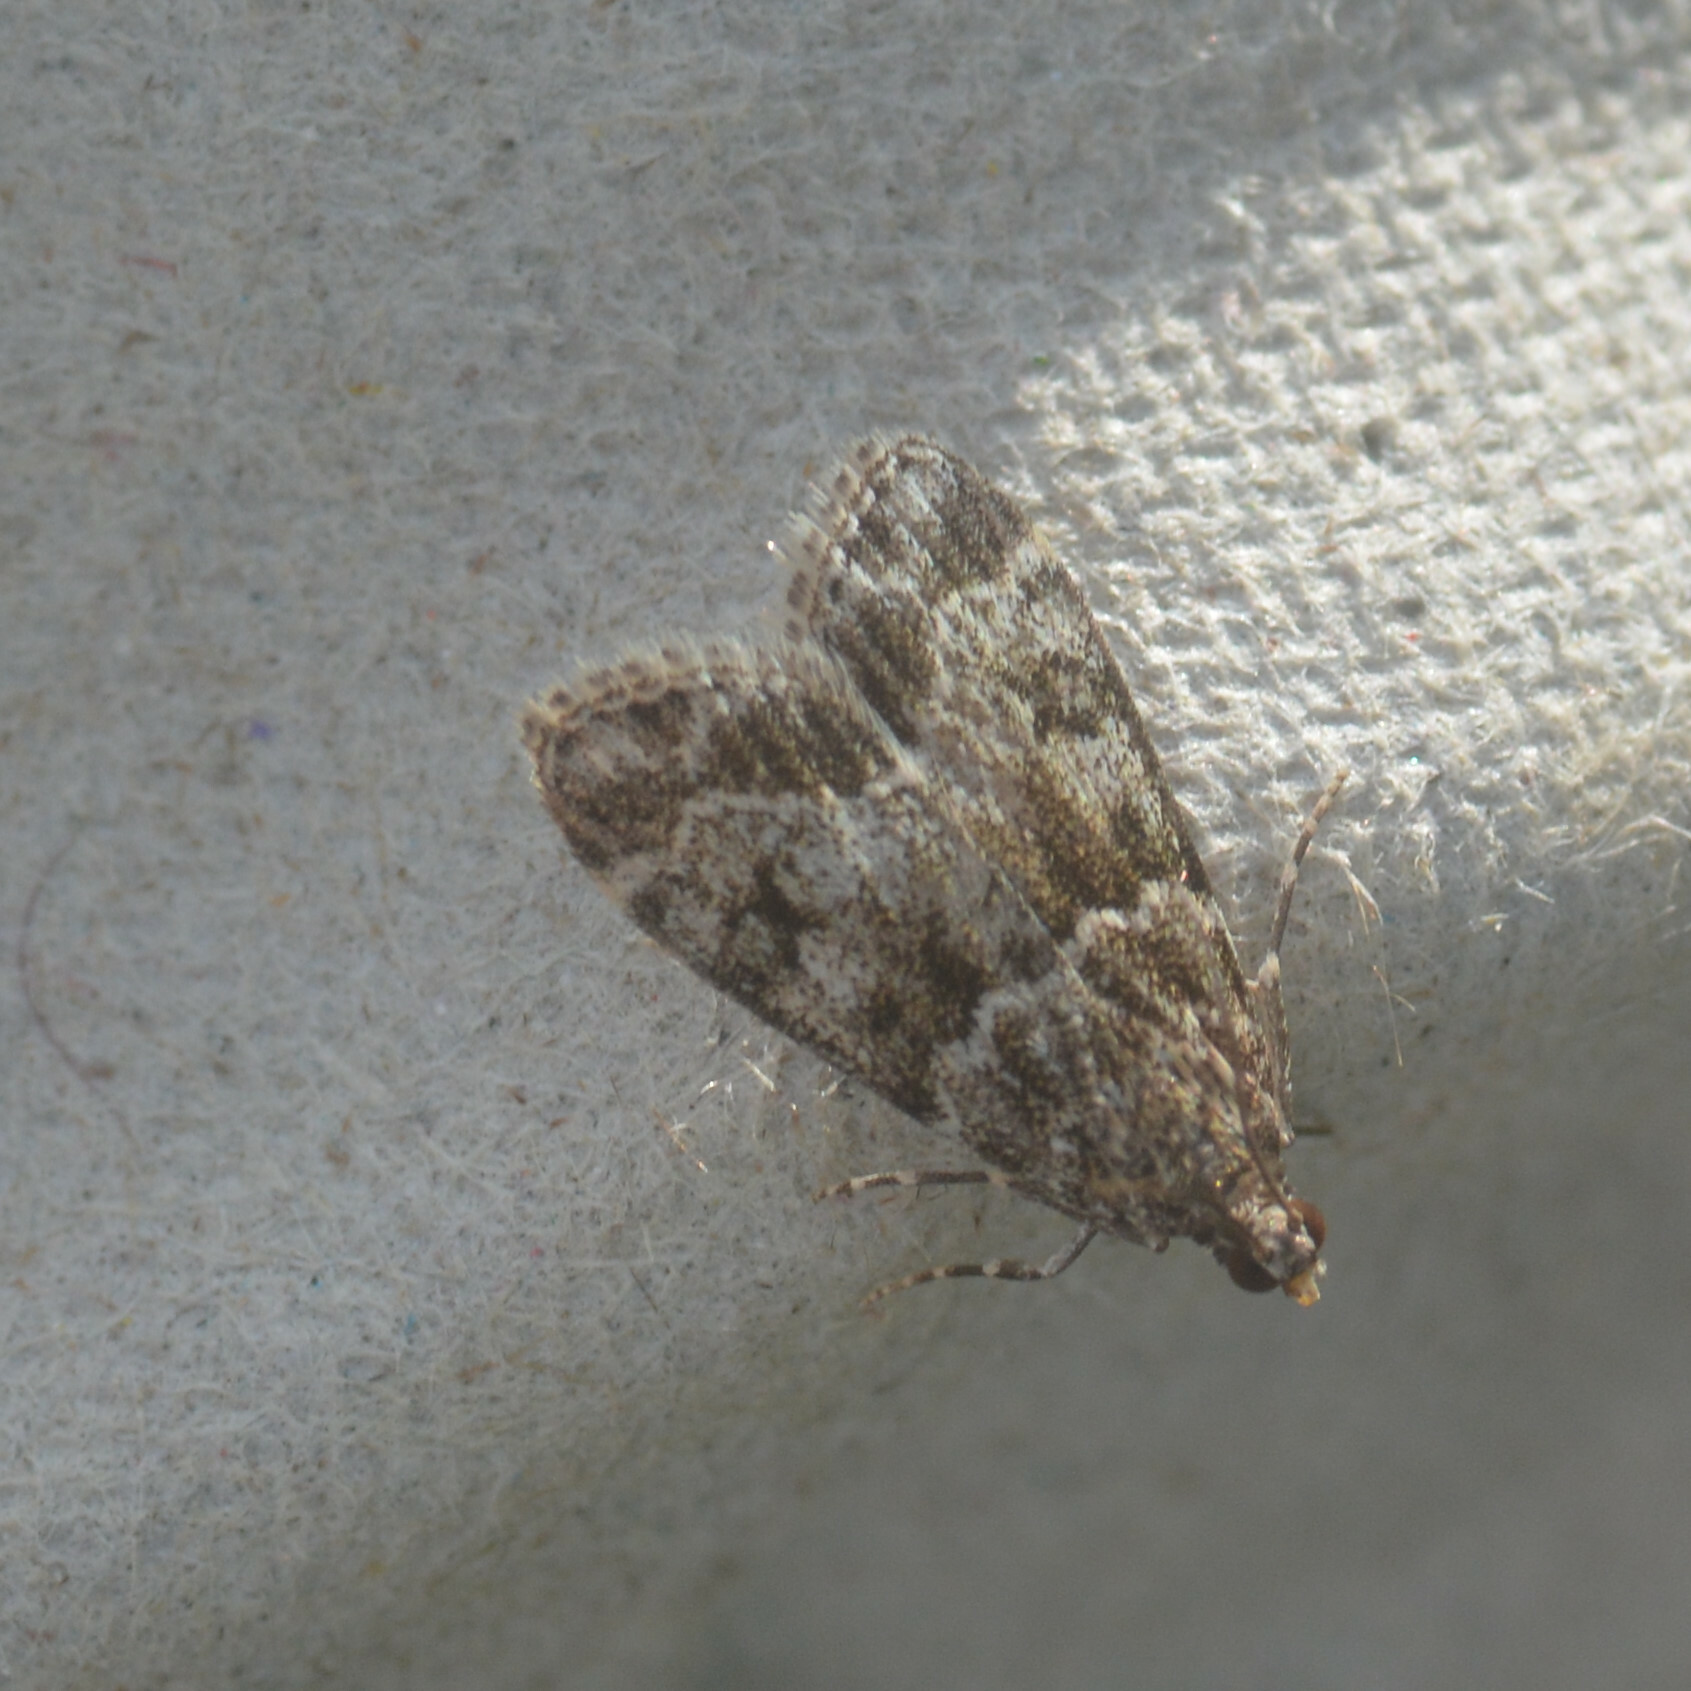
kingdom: Animalia
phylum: Arthropoda
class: Insecta
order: Lepidoptera
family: Crambidae
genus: Eudonia
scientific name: Eudonia mercurella
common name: Small grey
